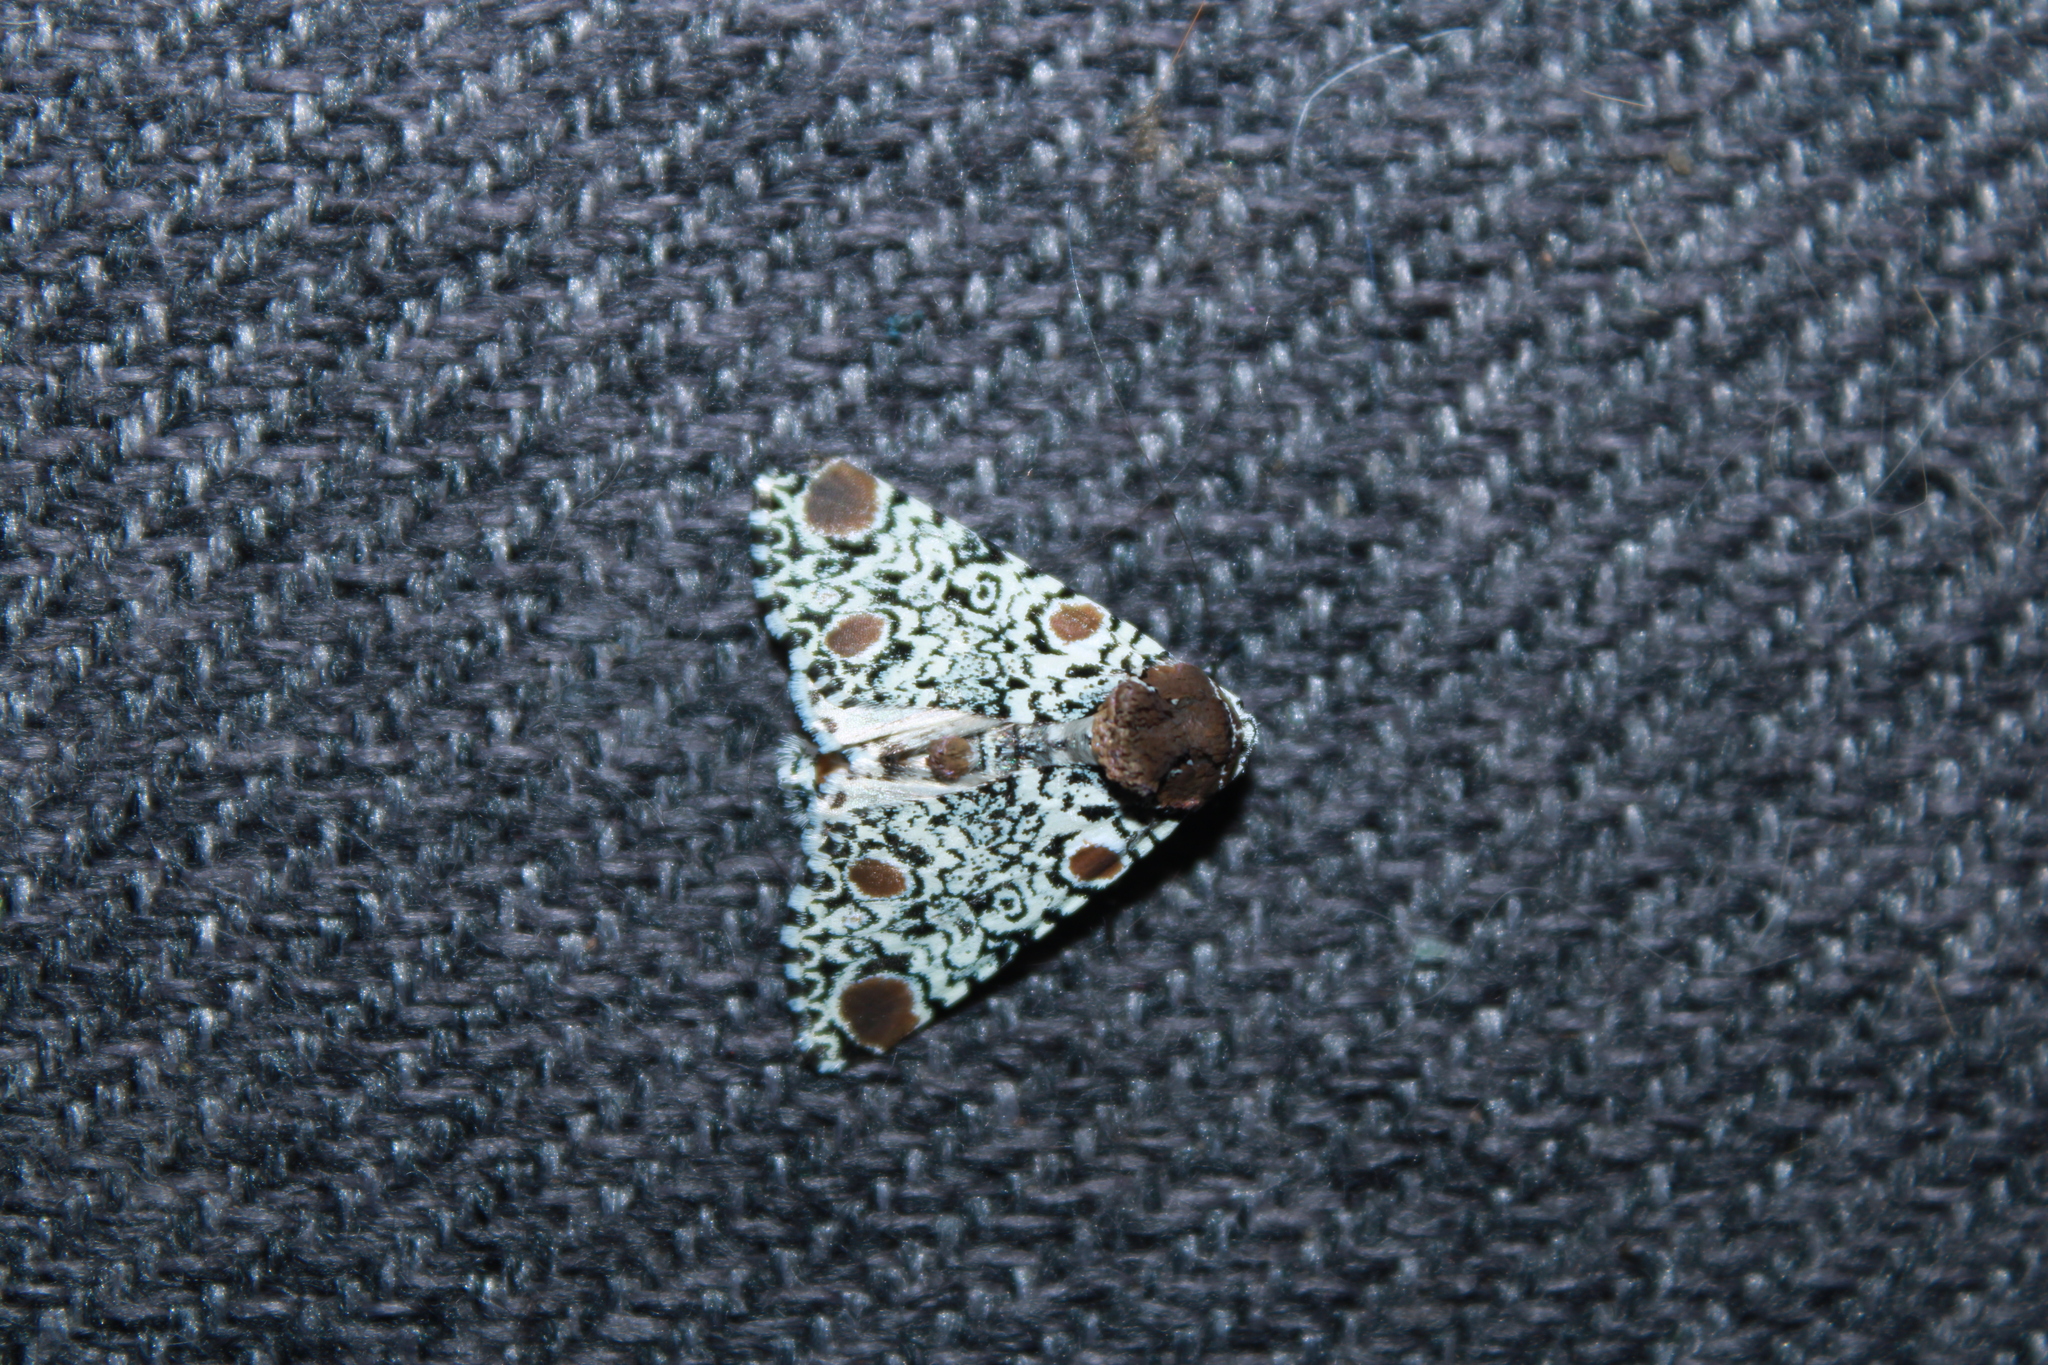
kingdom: Animalia
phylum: Arthropoda
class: Insecta
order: Lepidoptera
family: Noctuidae
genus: Harrisimemna
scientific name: Harrisimemna trisignata
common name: Harris threespot
